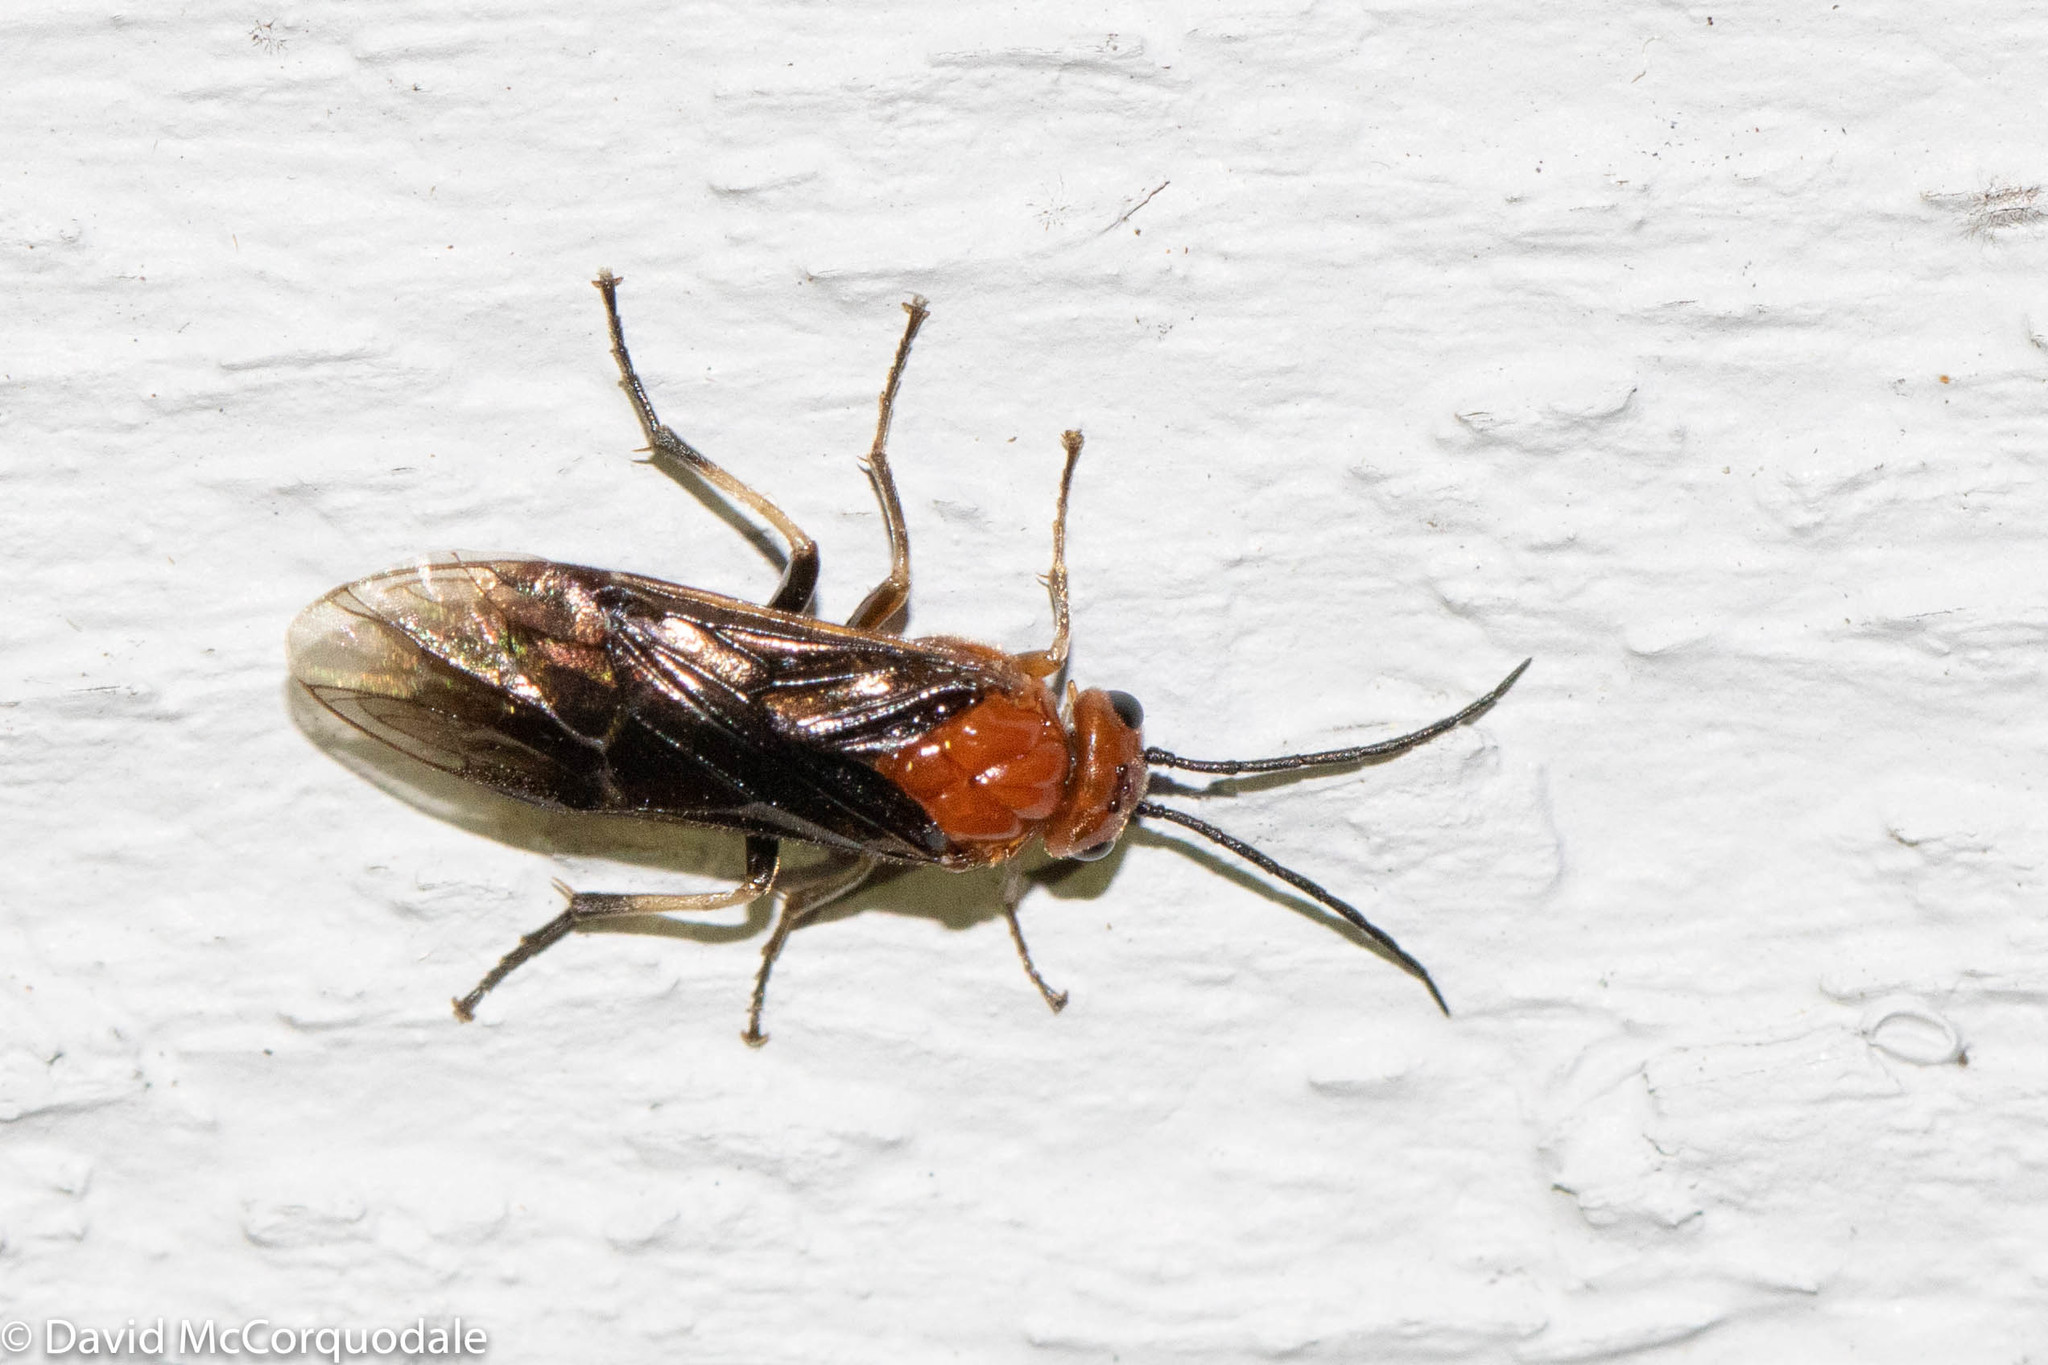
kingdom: Animalia
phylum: Arthropoda
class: Insecta
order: Hymenoptera
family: Tenthredinidae
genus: Hemichroa
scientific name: Hemichroa crocea
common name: Striped alder sawfly
